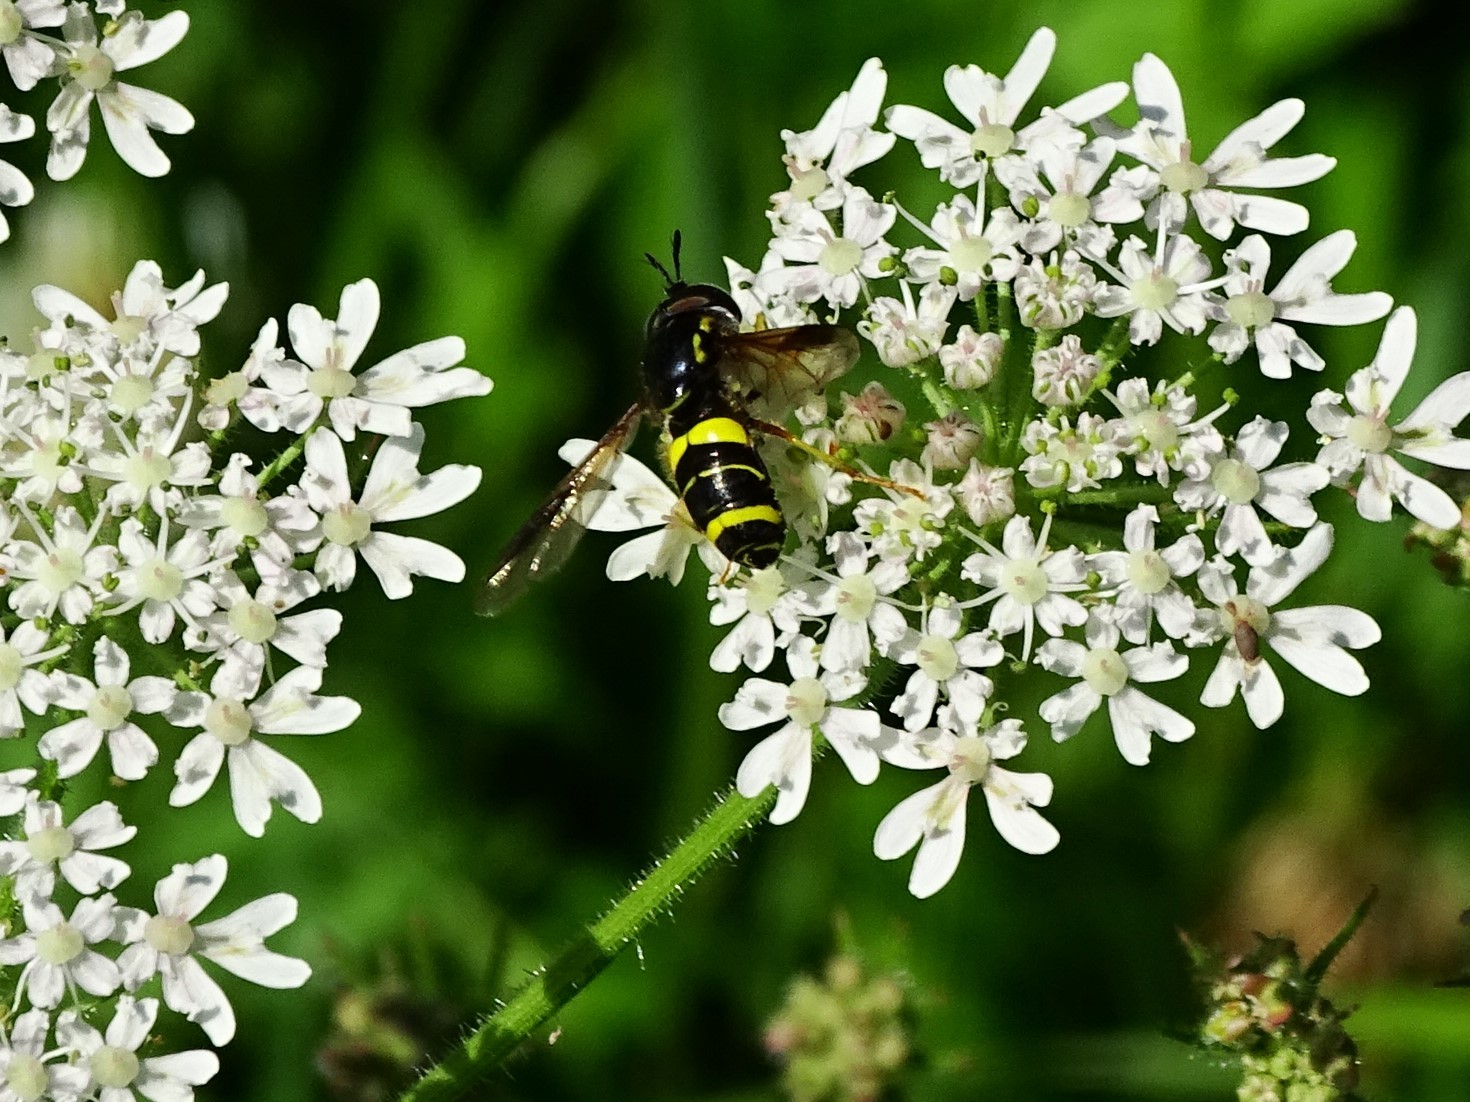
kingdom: Animalia
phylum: Arthropoda
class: Insecta
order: Diptera
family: Syrphidae
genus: Chrysotoxum
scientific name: Chrysotoxum bicincta
